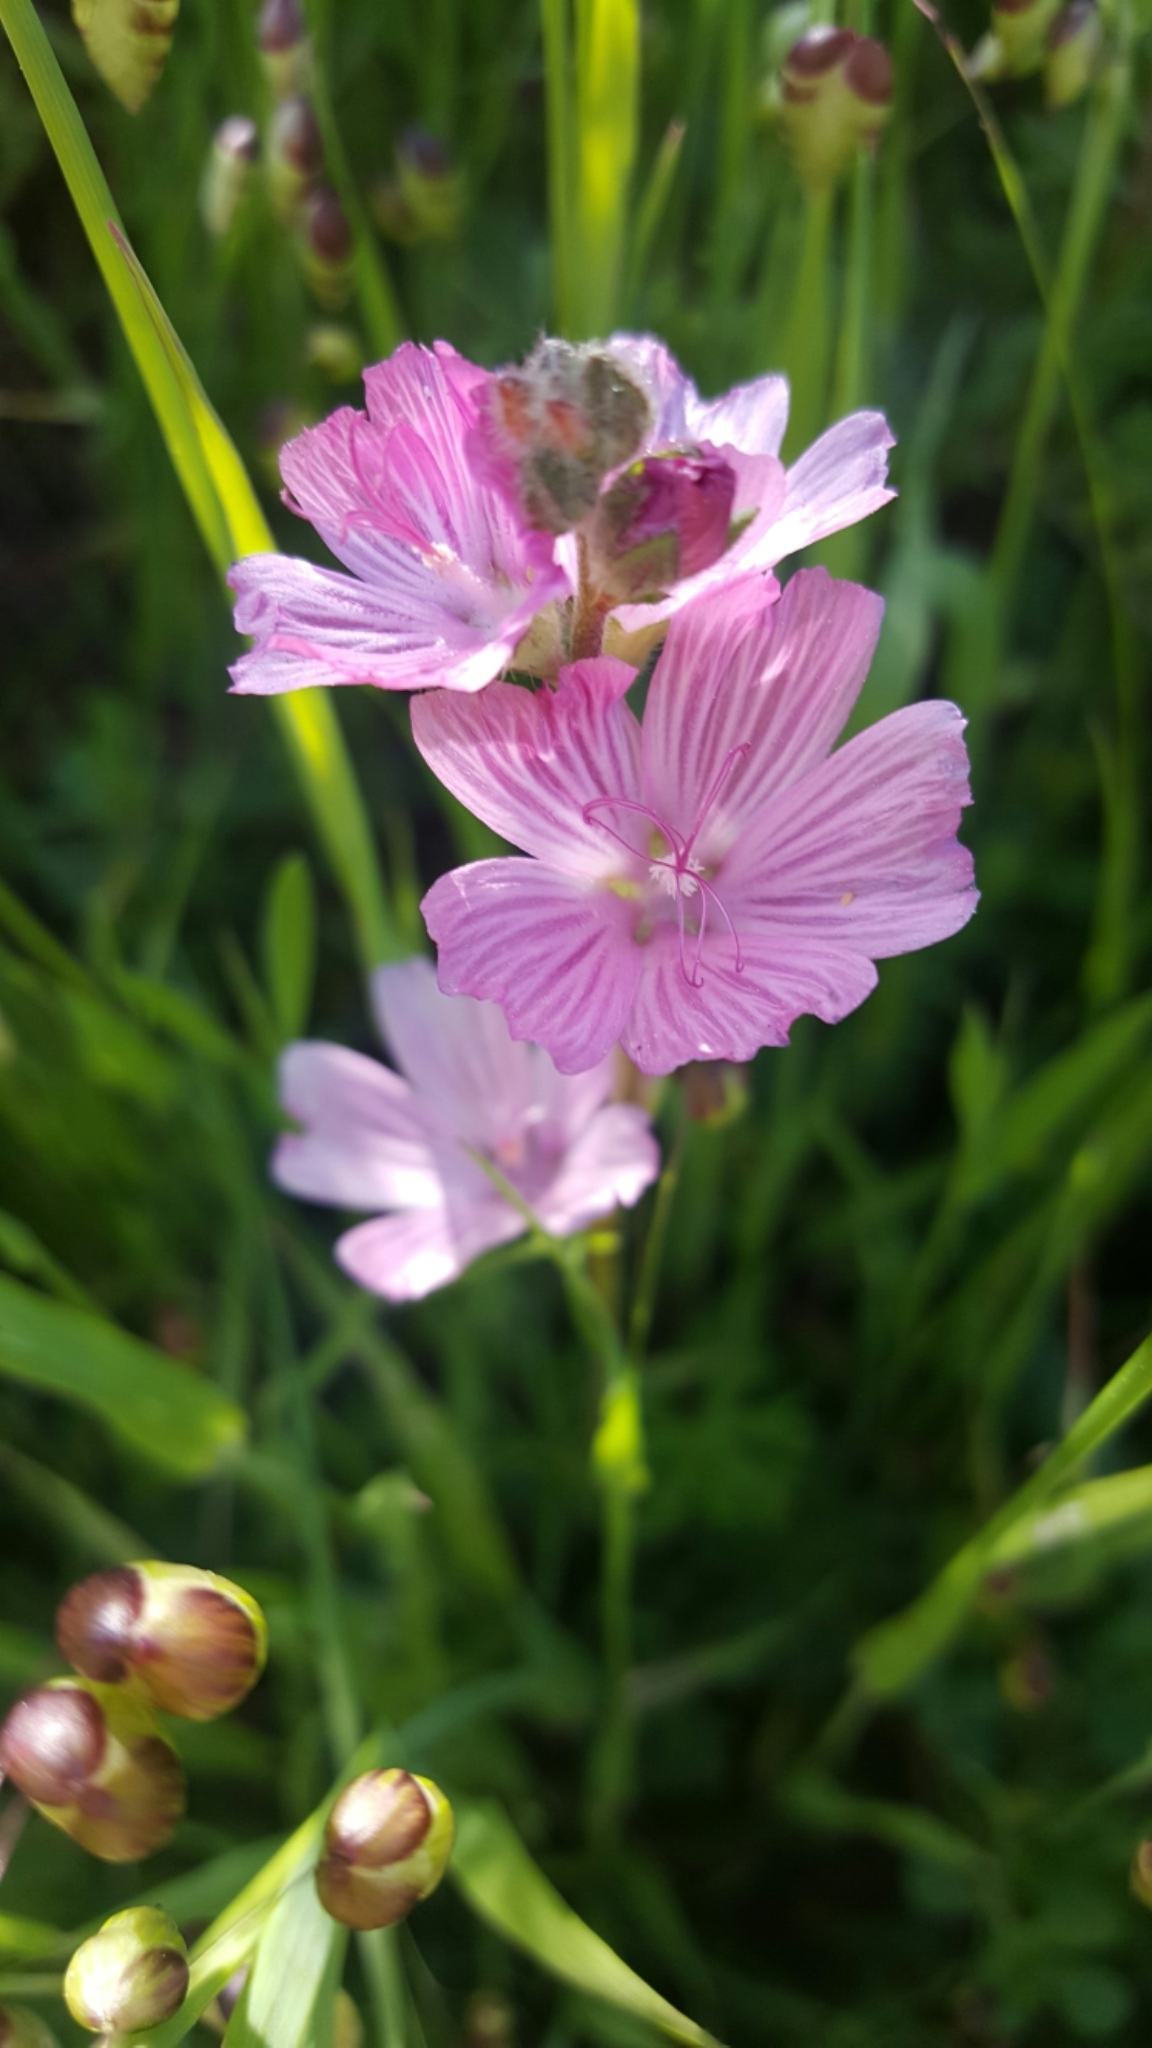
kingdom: Plantae
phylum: Tracheophyta
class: Magnoliopsida
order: Malvales
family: Malvaceae
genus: Sidalcea
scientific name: Sidalcea malviflora
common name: Greek mallow
